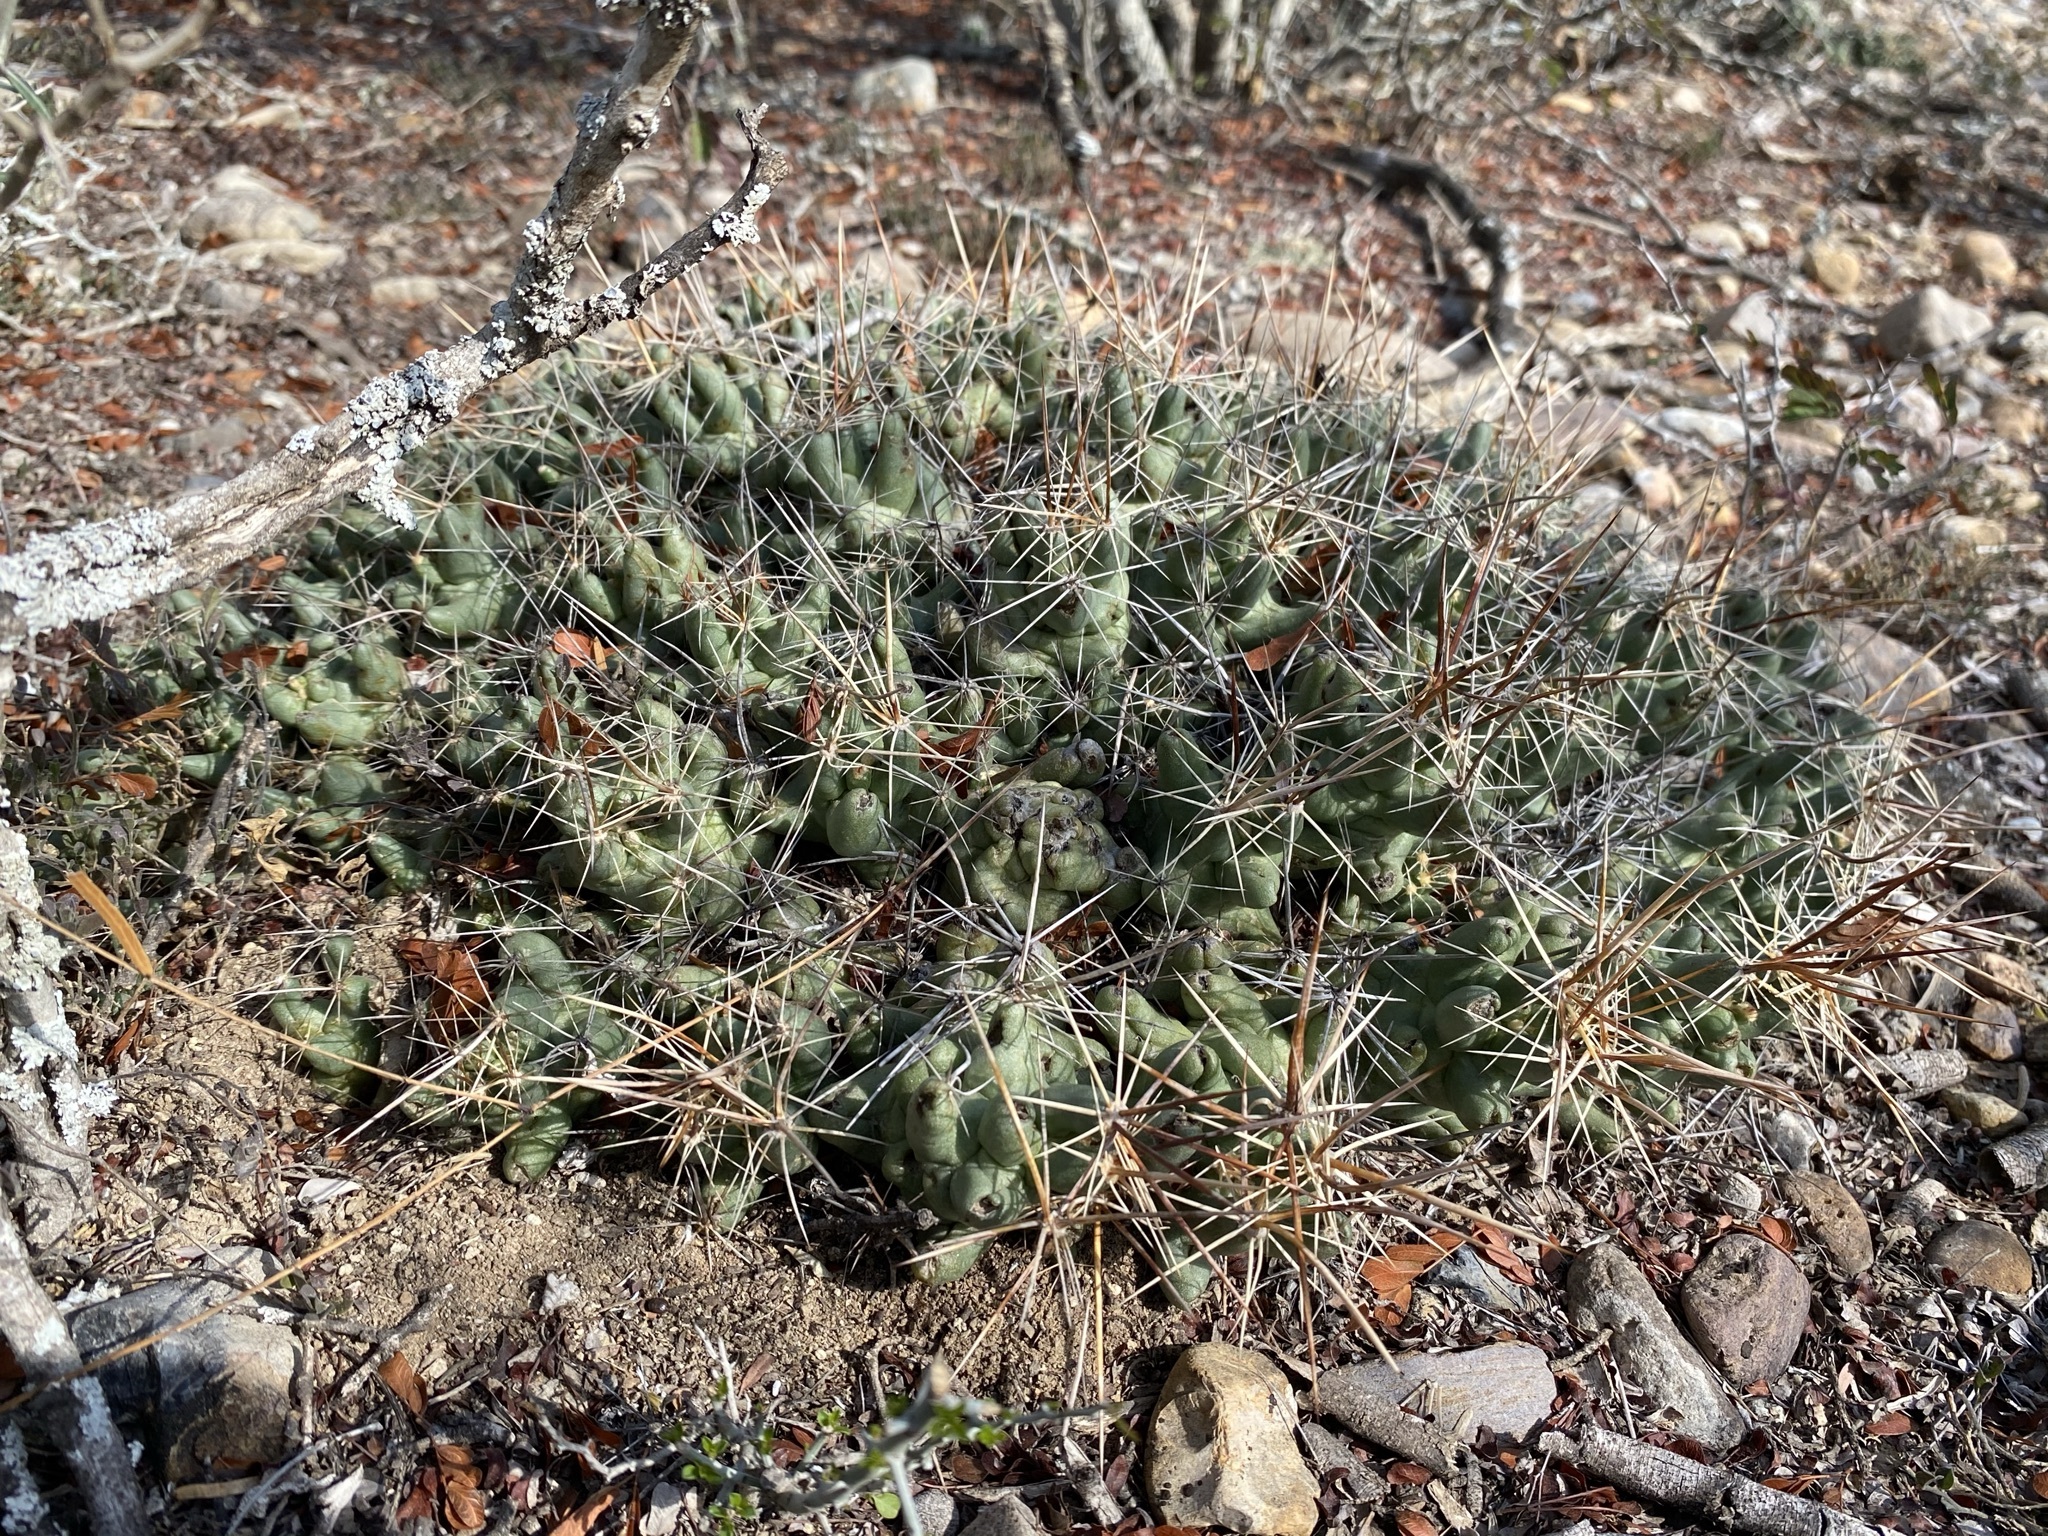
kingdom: Plantae
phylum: Tracheophyta
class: Magnoliopsida
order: Caryophyllales
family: Cactaceae
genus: Pelecyphora
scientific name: Pelecyphora macromeris
